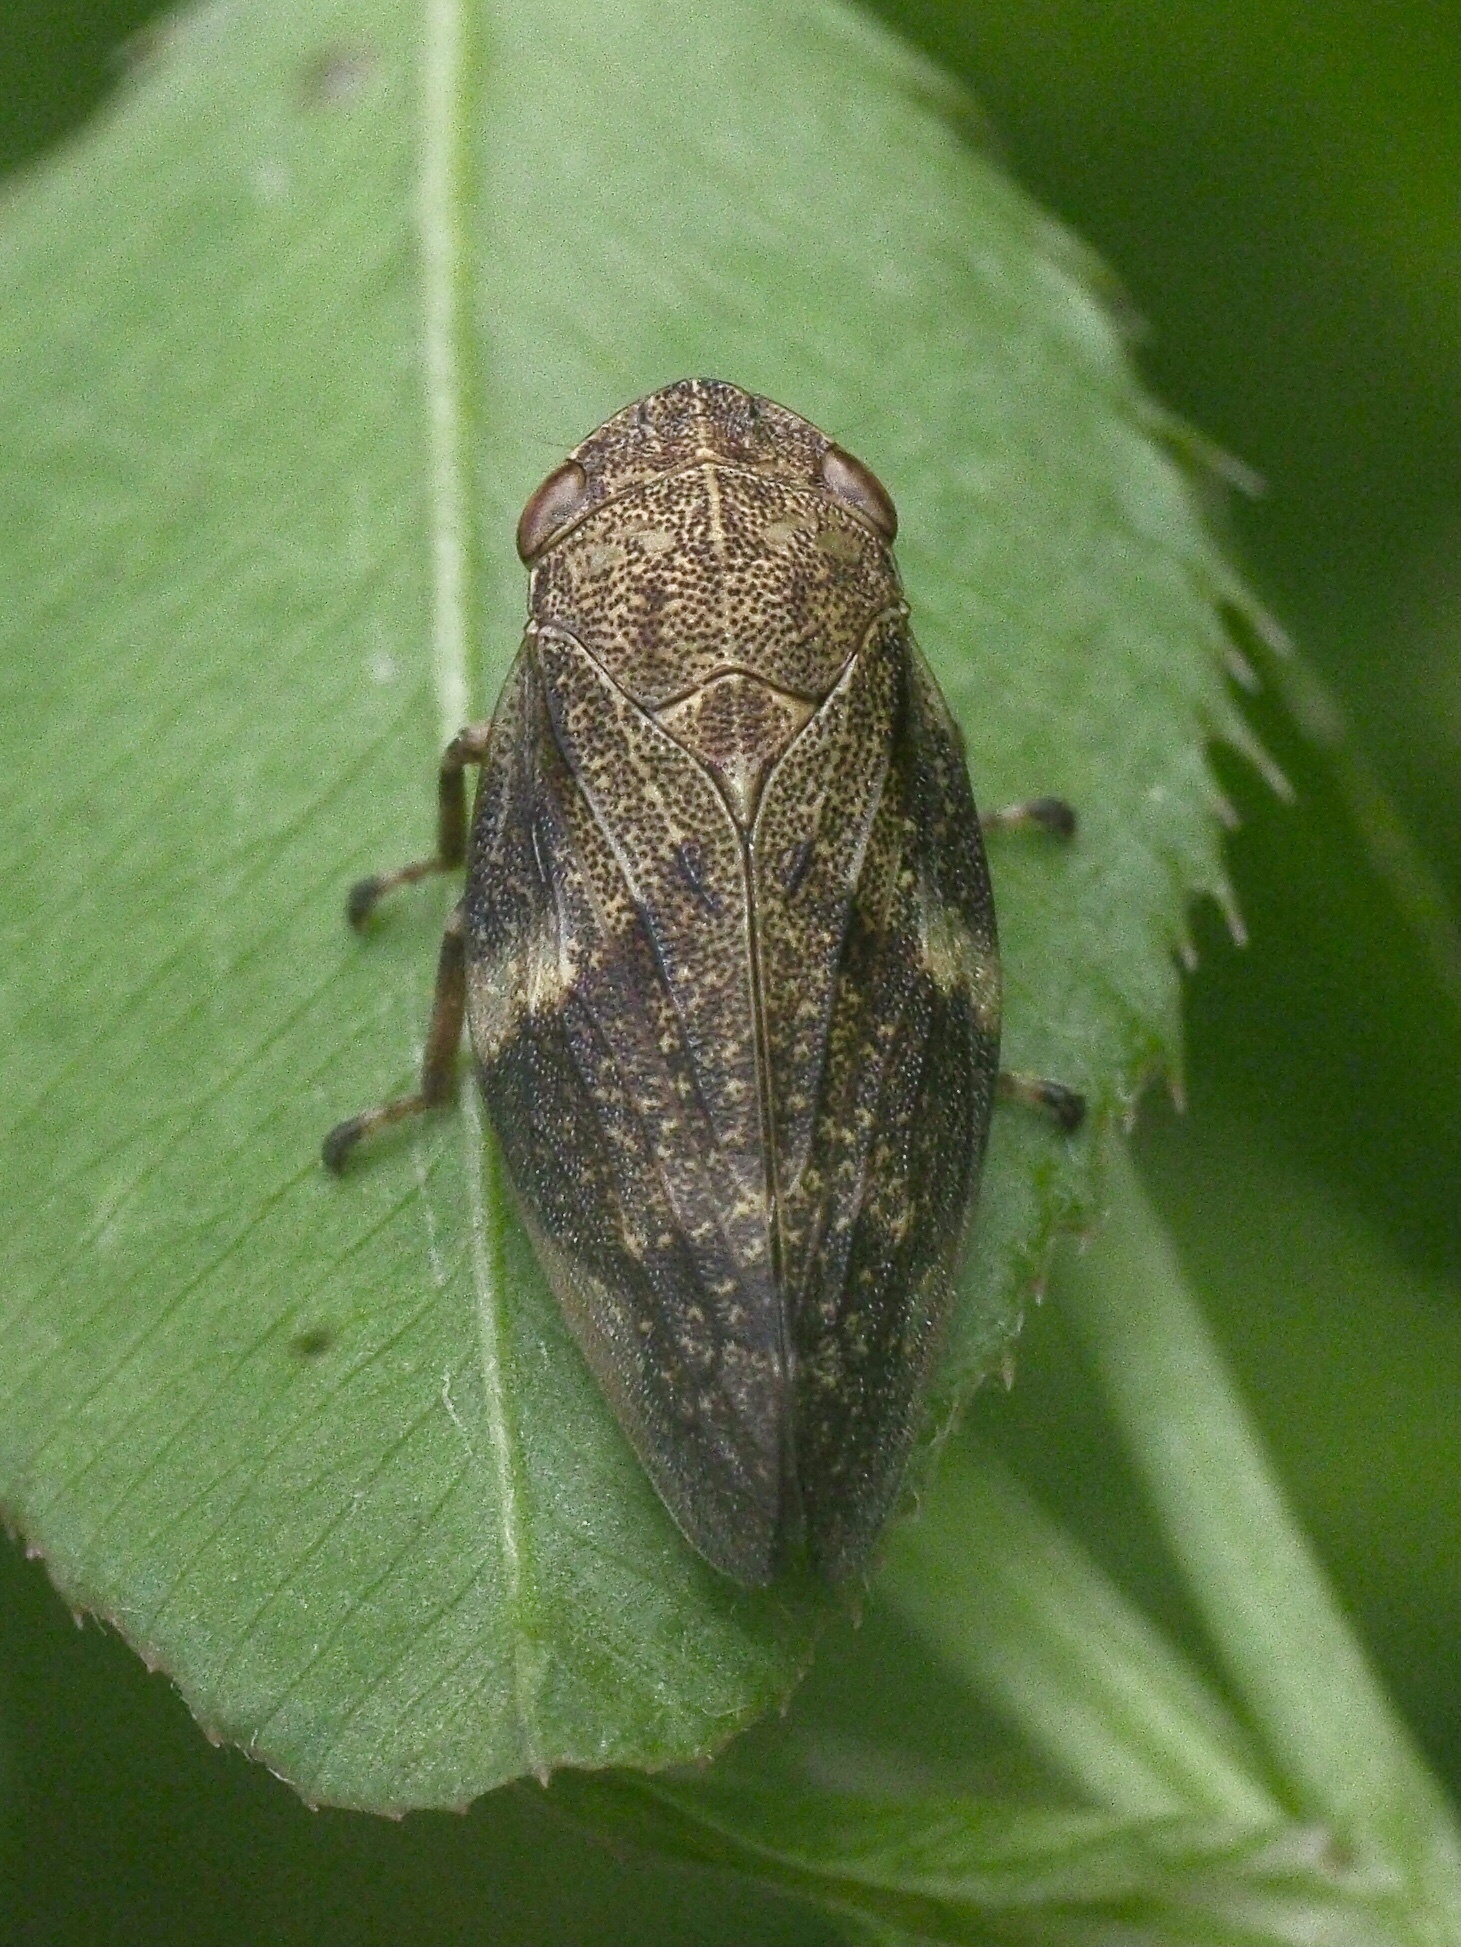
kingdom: Animalia
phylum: Arthropoda
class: Insecta
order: Hemiptera
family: Aphrophoridae
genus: Aphrophora
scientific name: Aphrophora alni
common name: European alder spittlebug
